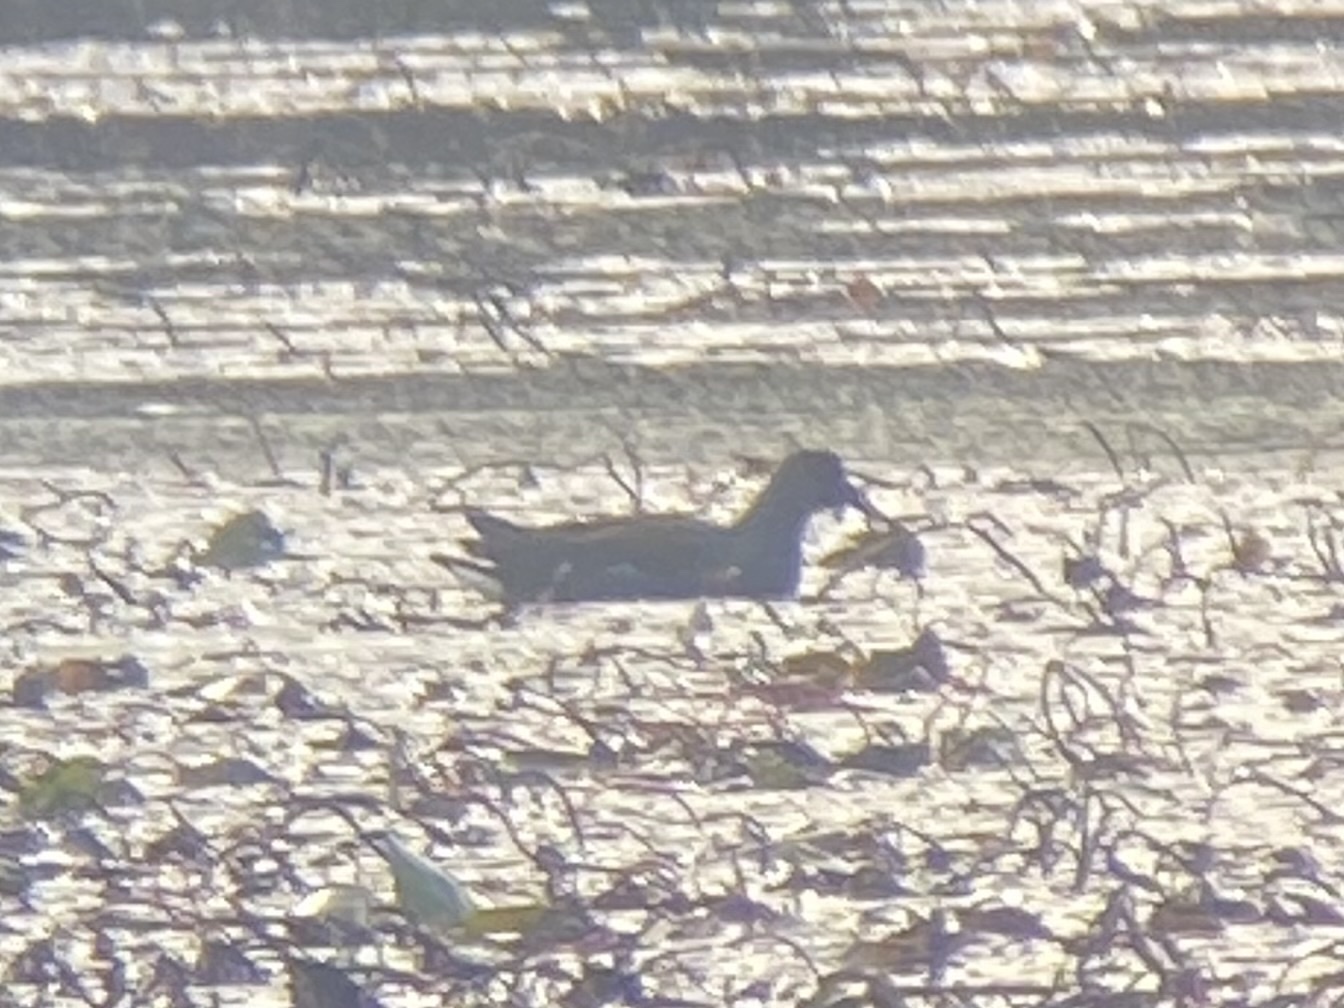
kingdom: Animalia
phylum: Chordata
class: Aves
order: Gruiformes
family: Rallidae
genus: Gallinula
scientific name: Gallinula chloropus
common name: Common moorhen
